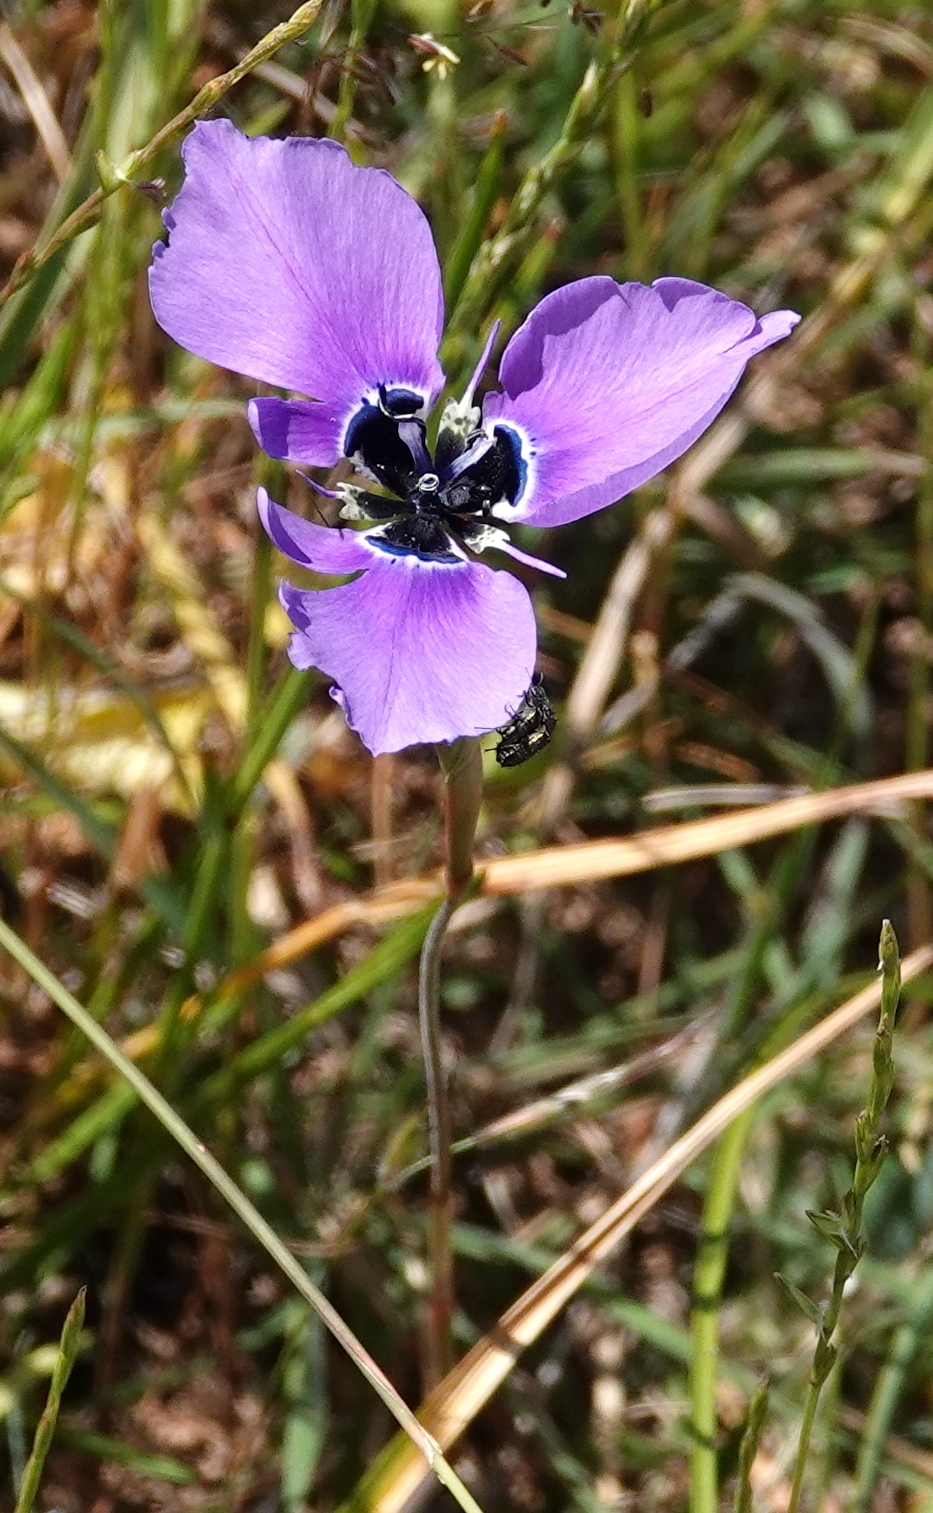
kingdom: Plantae
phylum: Tracheophyta
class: Liliopsida
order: Asparagales
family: Iridaceae
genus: Moraea
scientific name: Moraea gigandra
